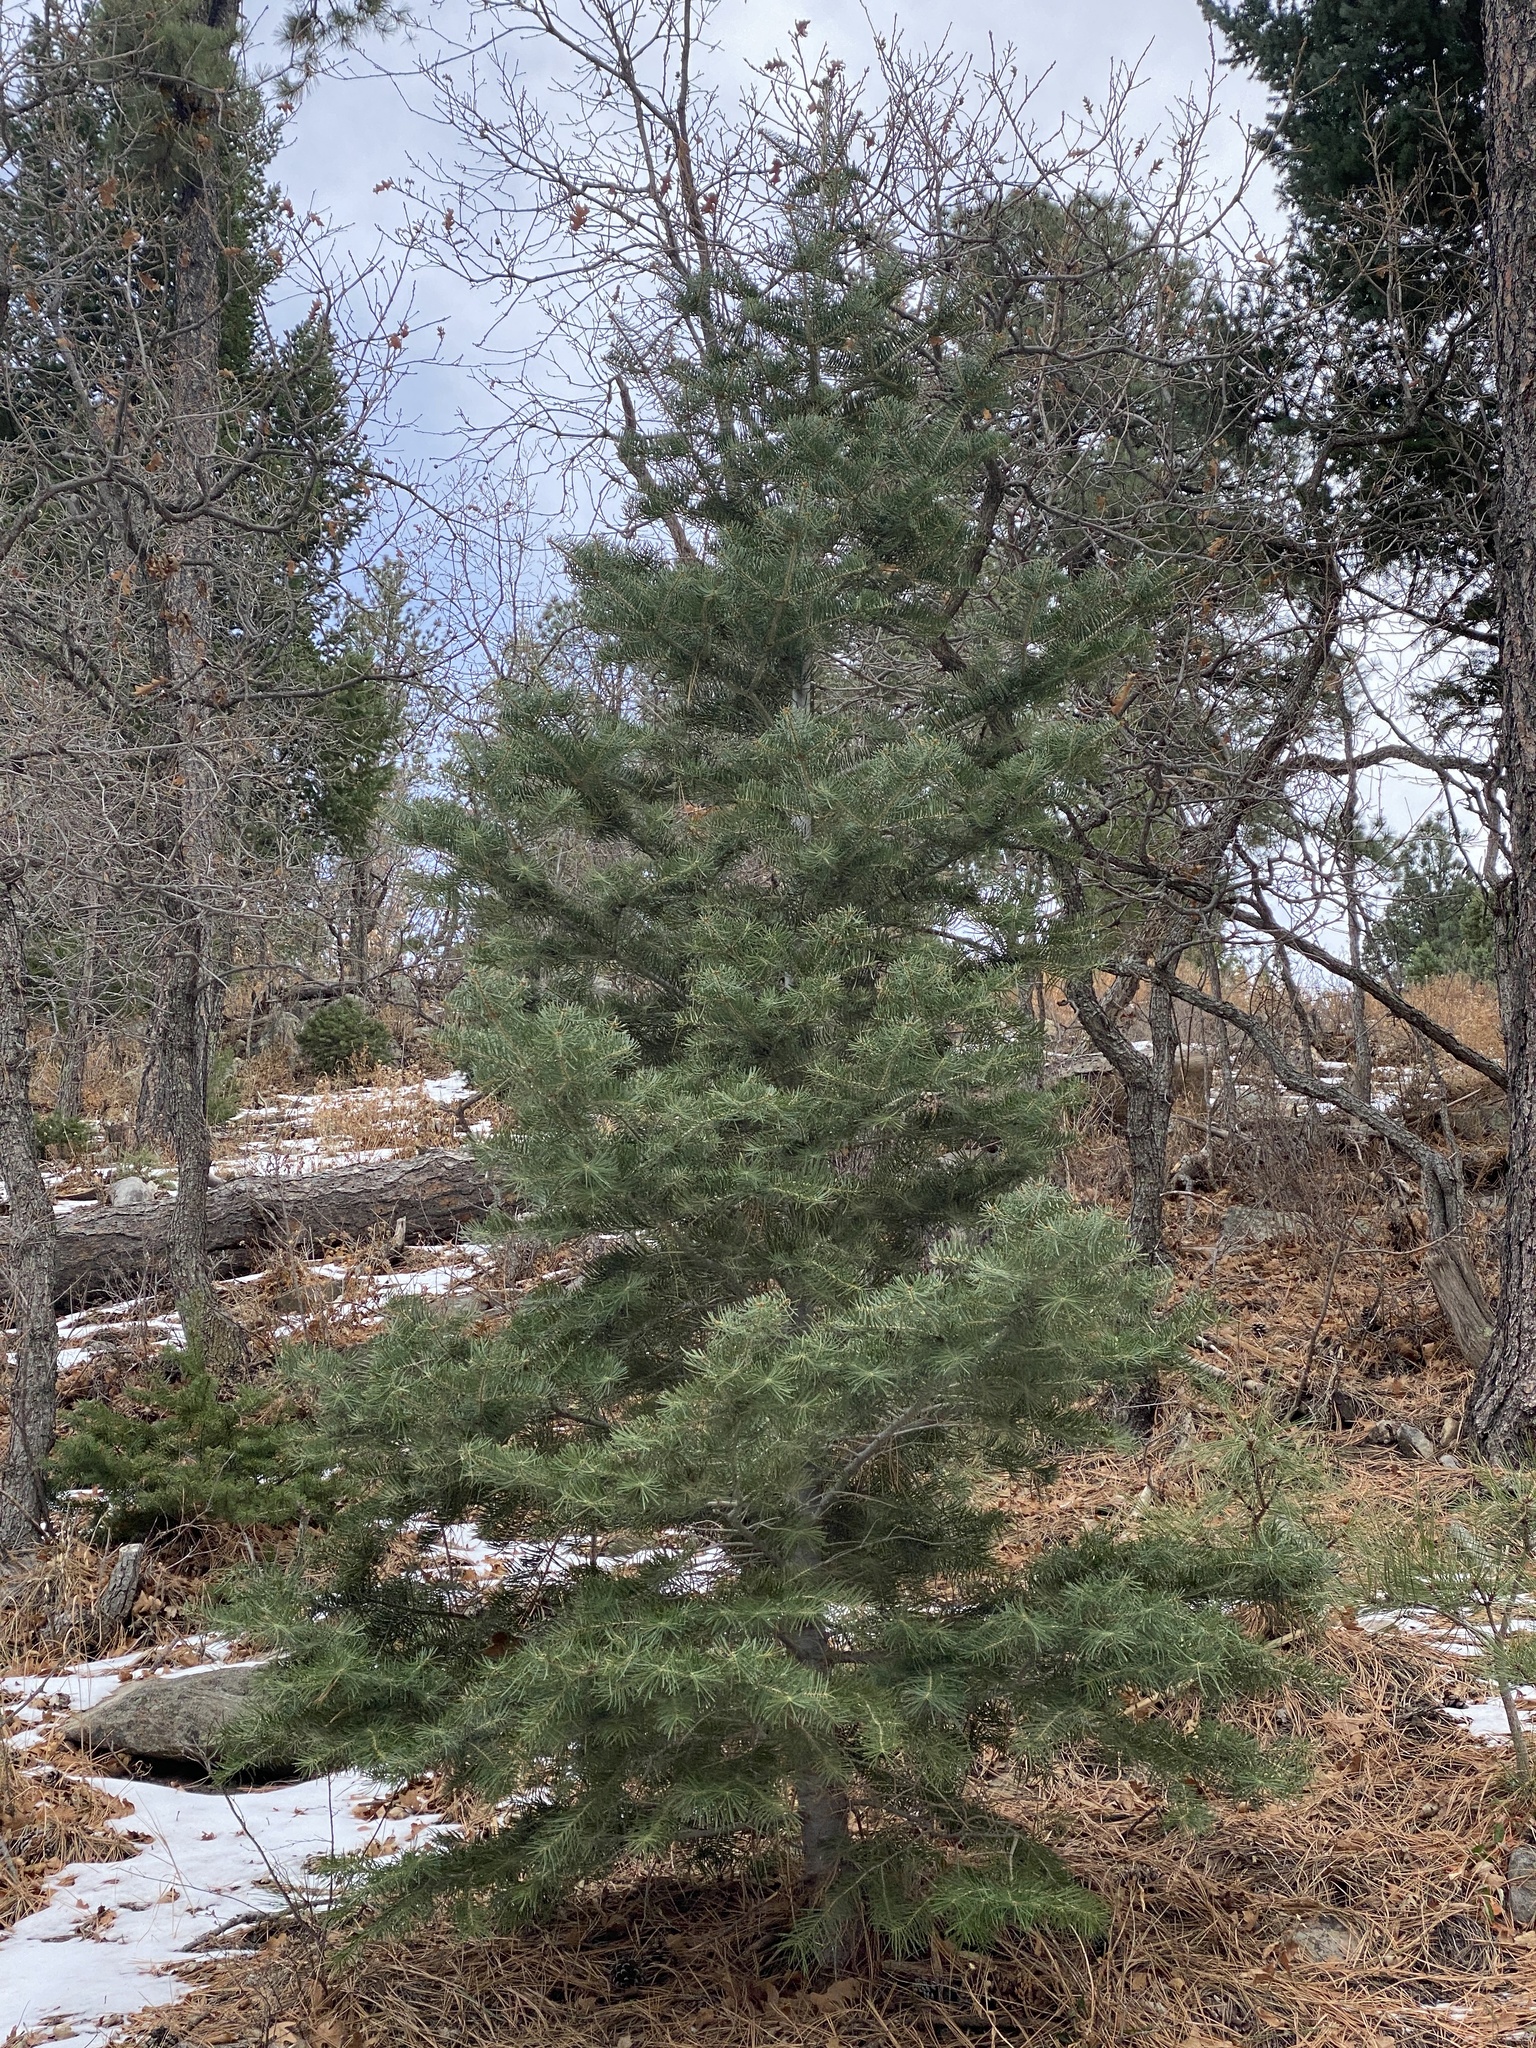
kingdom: Plantae
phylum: Tracheophyta
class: Pinopsida
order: Pinales
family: Pinaceae
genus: Abies
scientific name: Abies concolor
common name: Colorado fir
